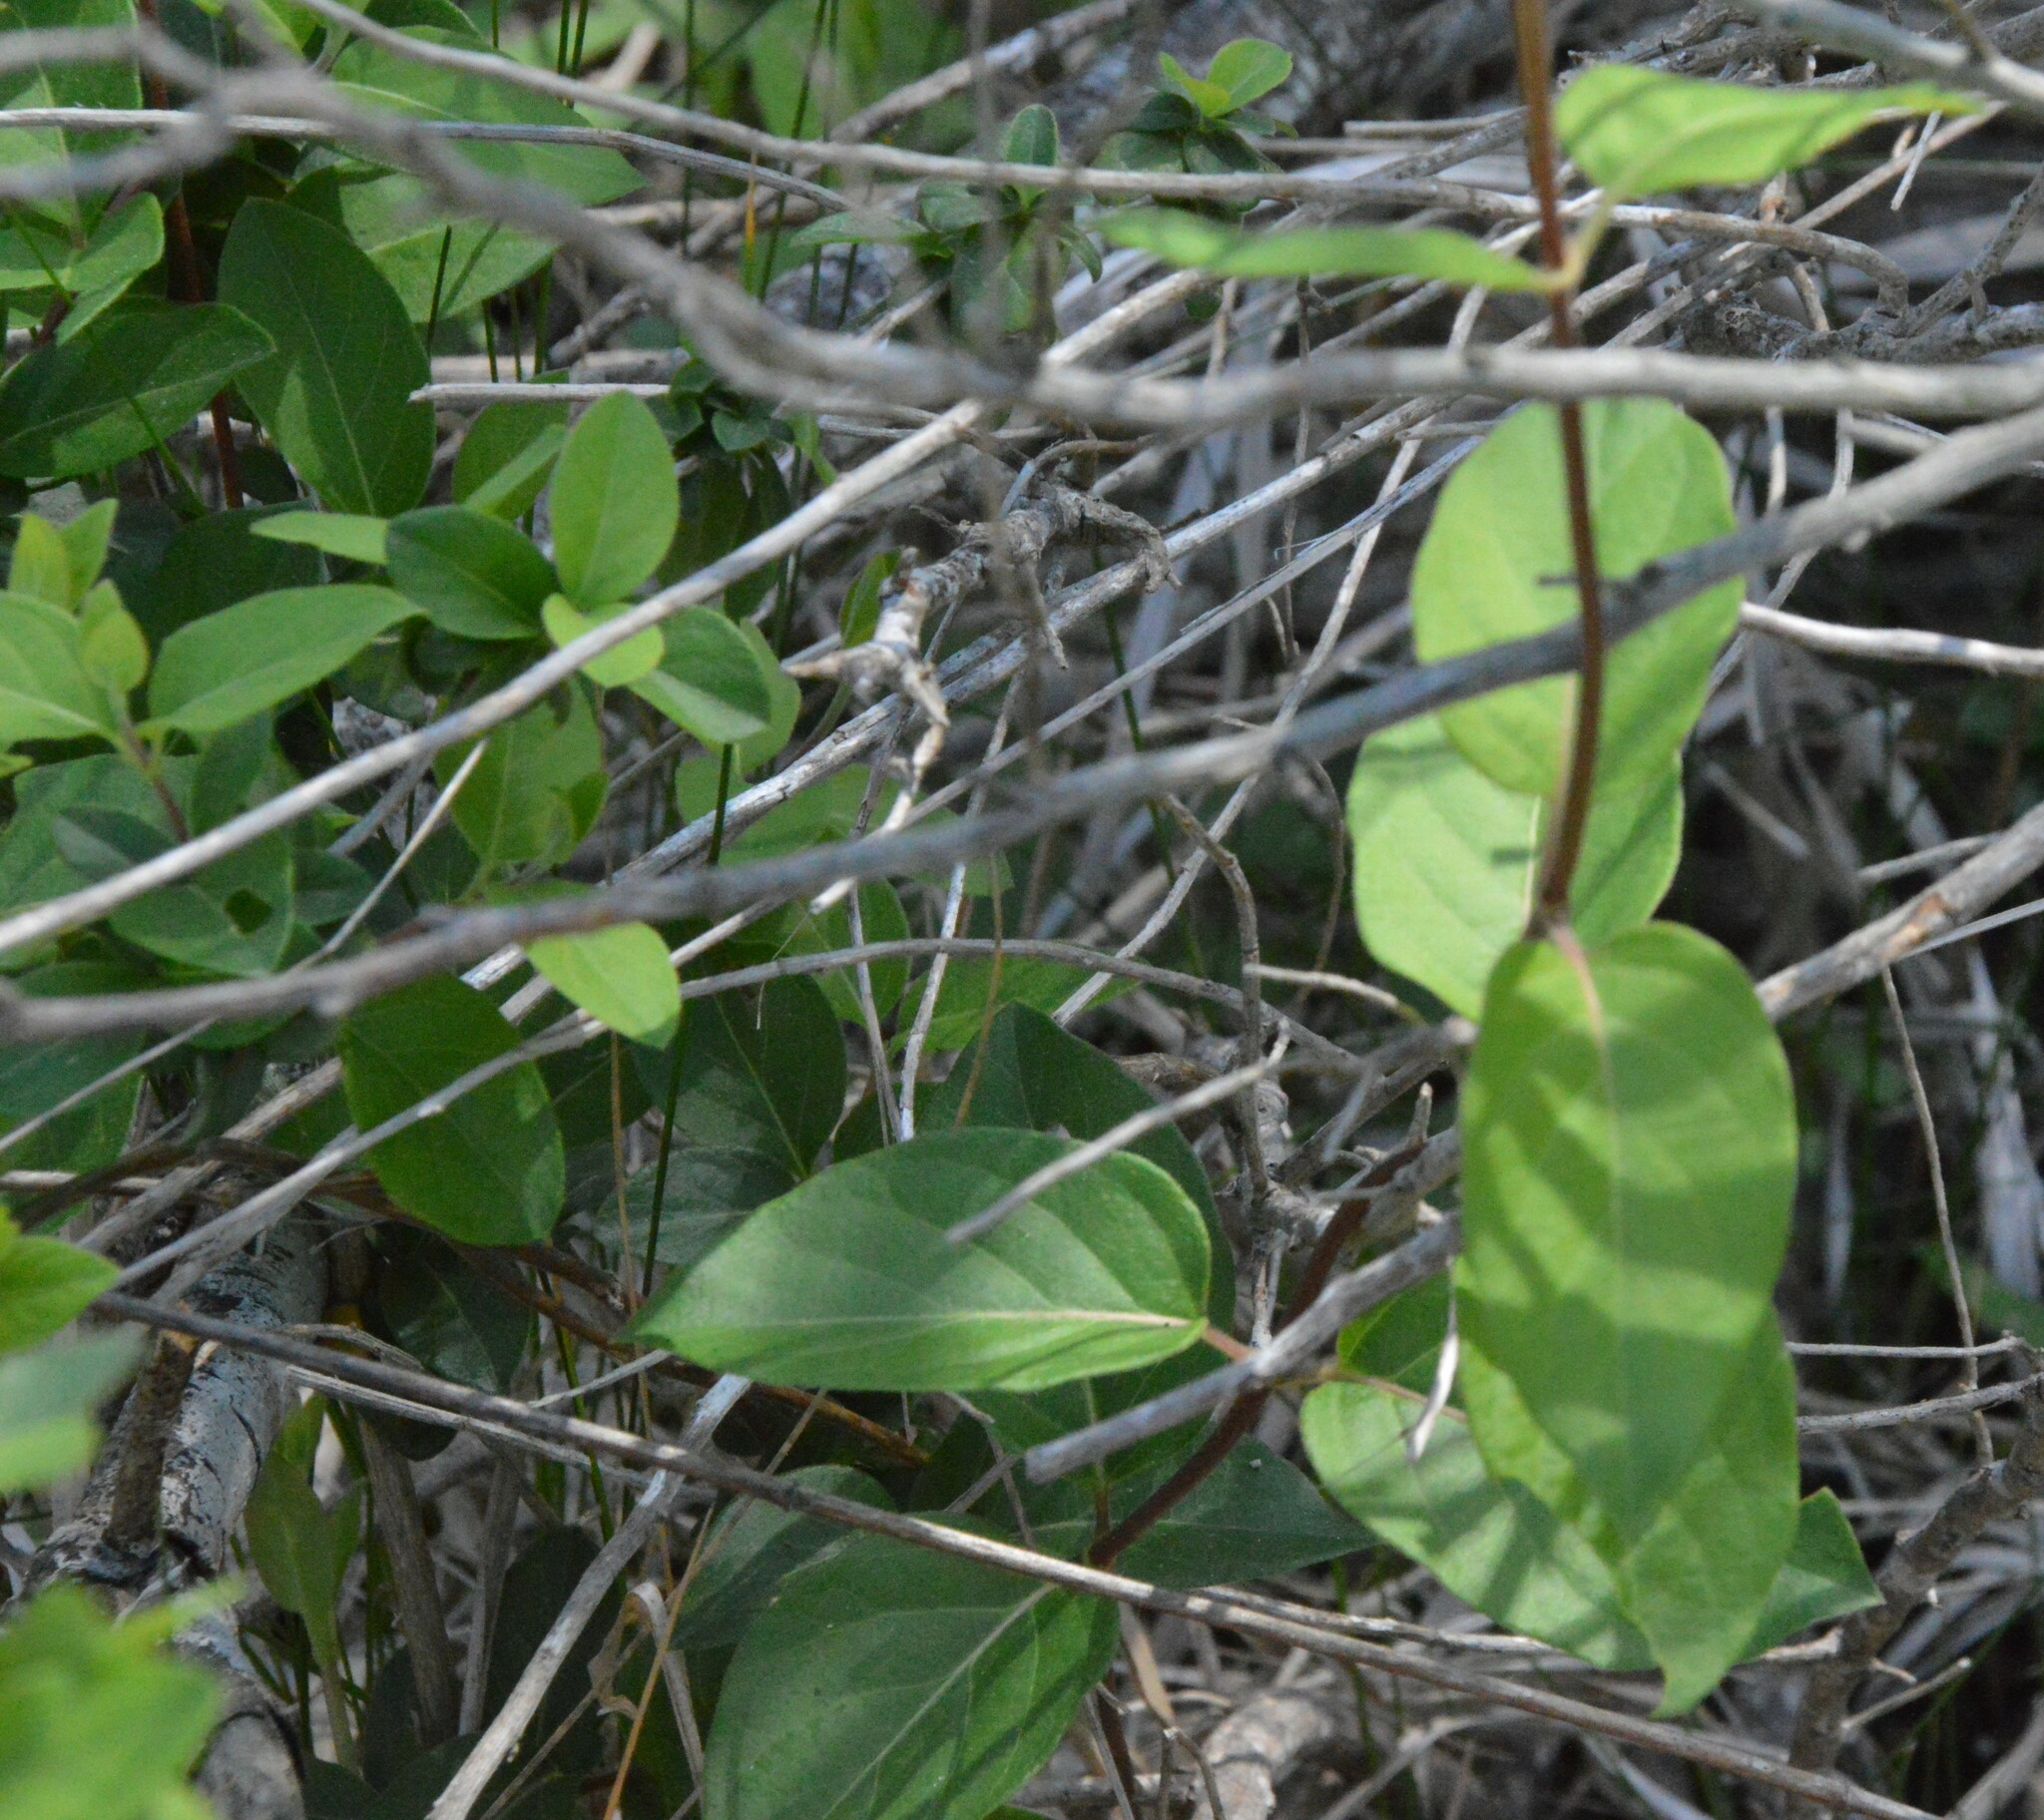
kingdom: Plantae
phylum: Tracheophyta
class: Magnoliopsida
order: Dipsacales
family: Caprifoliaceae
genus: Lonicera
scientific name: Lonicera japonica
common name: Japanese honeysuckle
